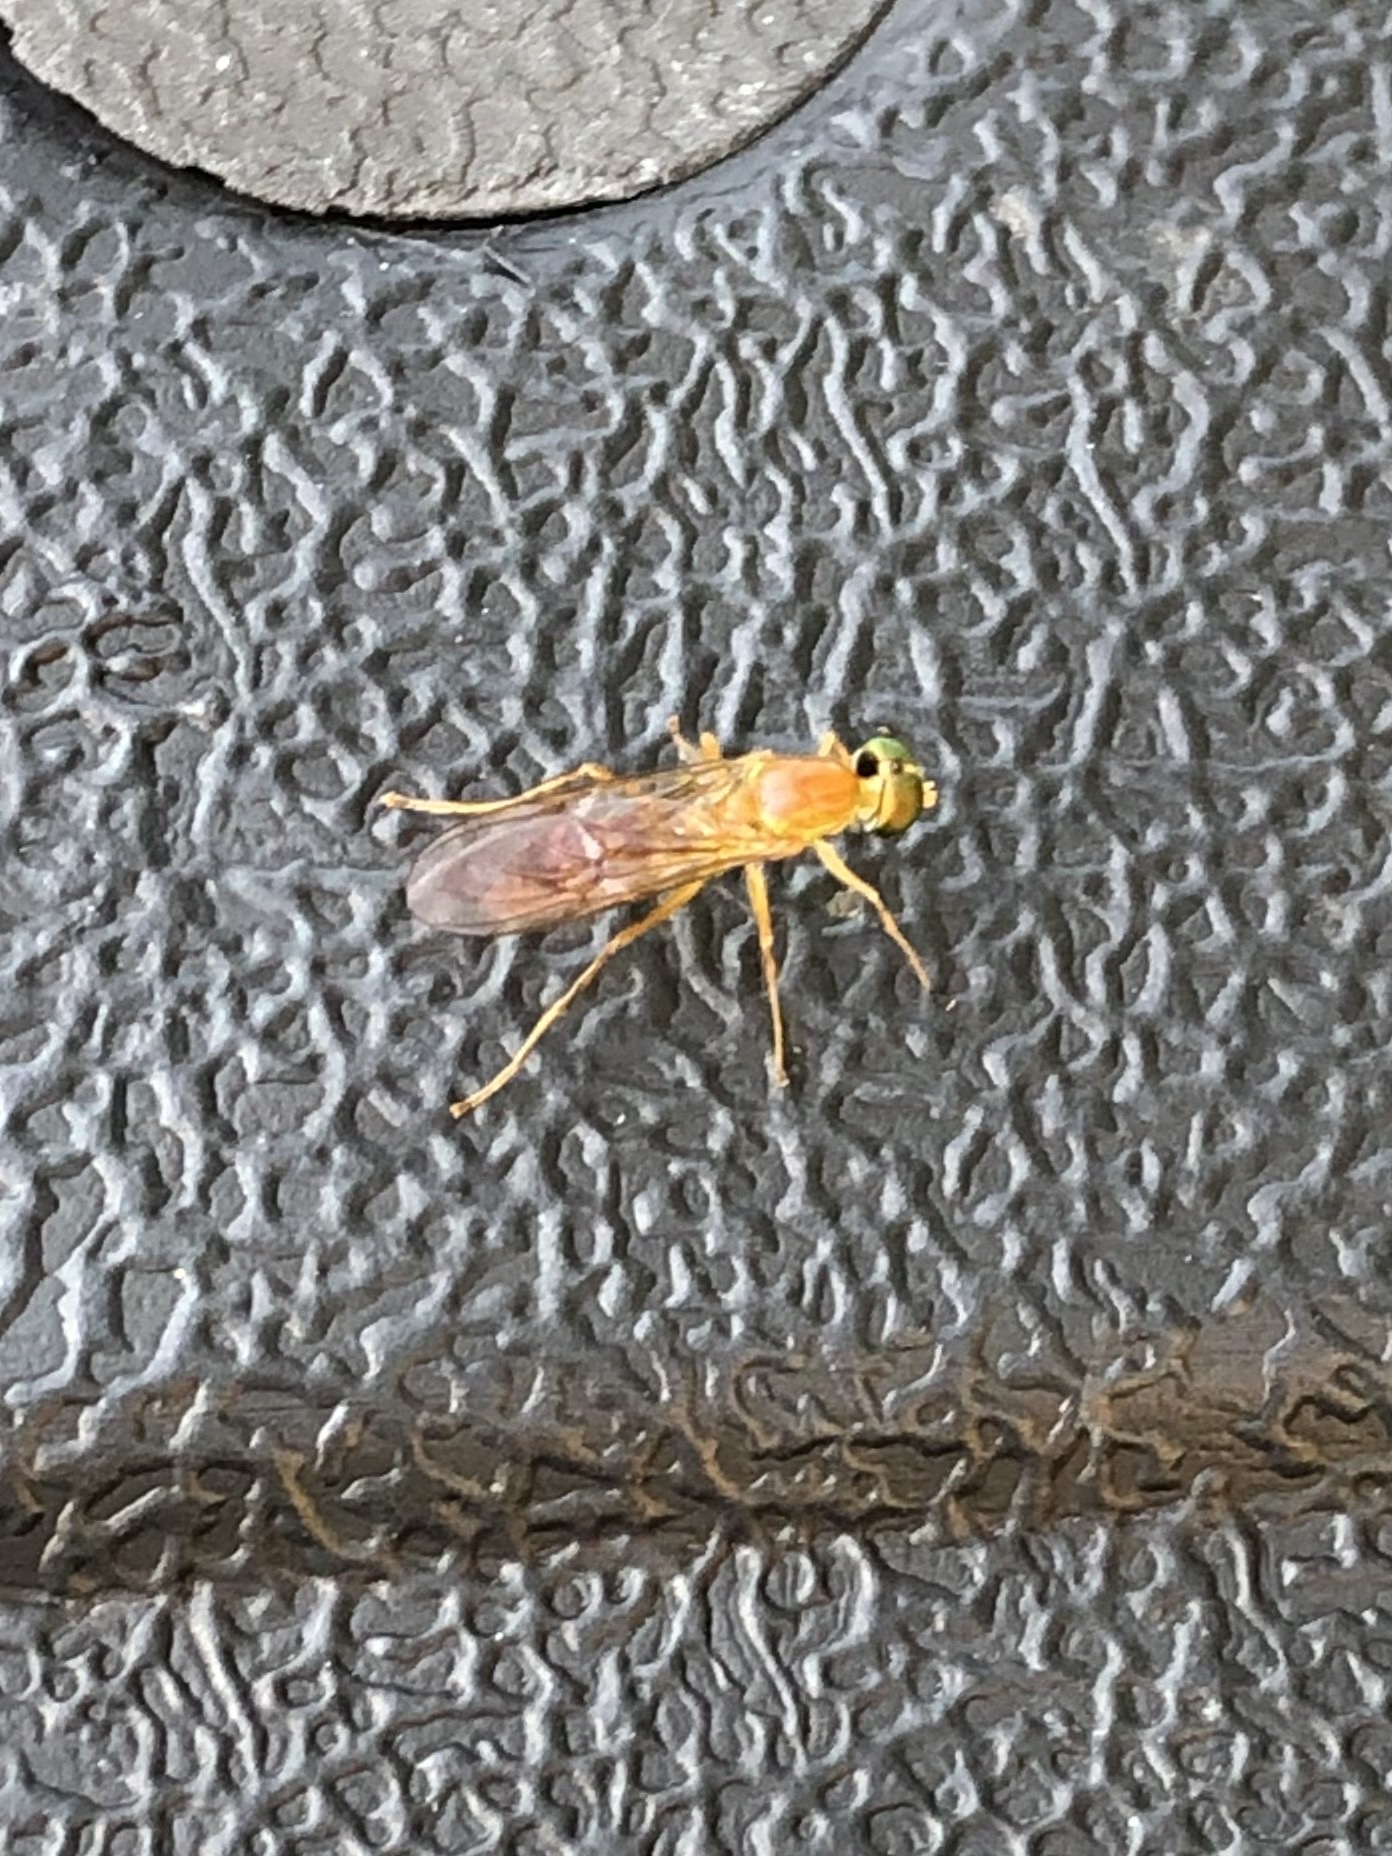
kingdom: Animalia
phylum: Arthropoda
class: Insecta
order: Diptera
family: Stratiomyidae
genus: Ptecticus
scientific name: Ptecticus trivittatus
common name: Compost fly
